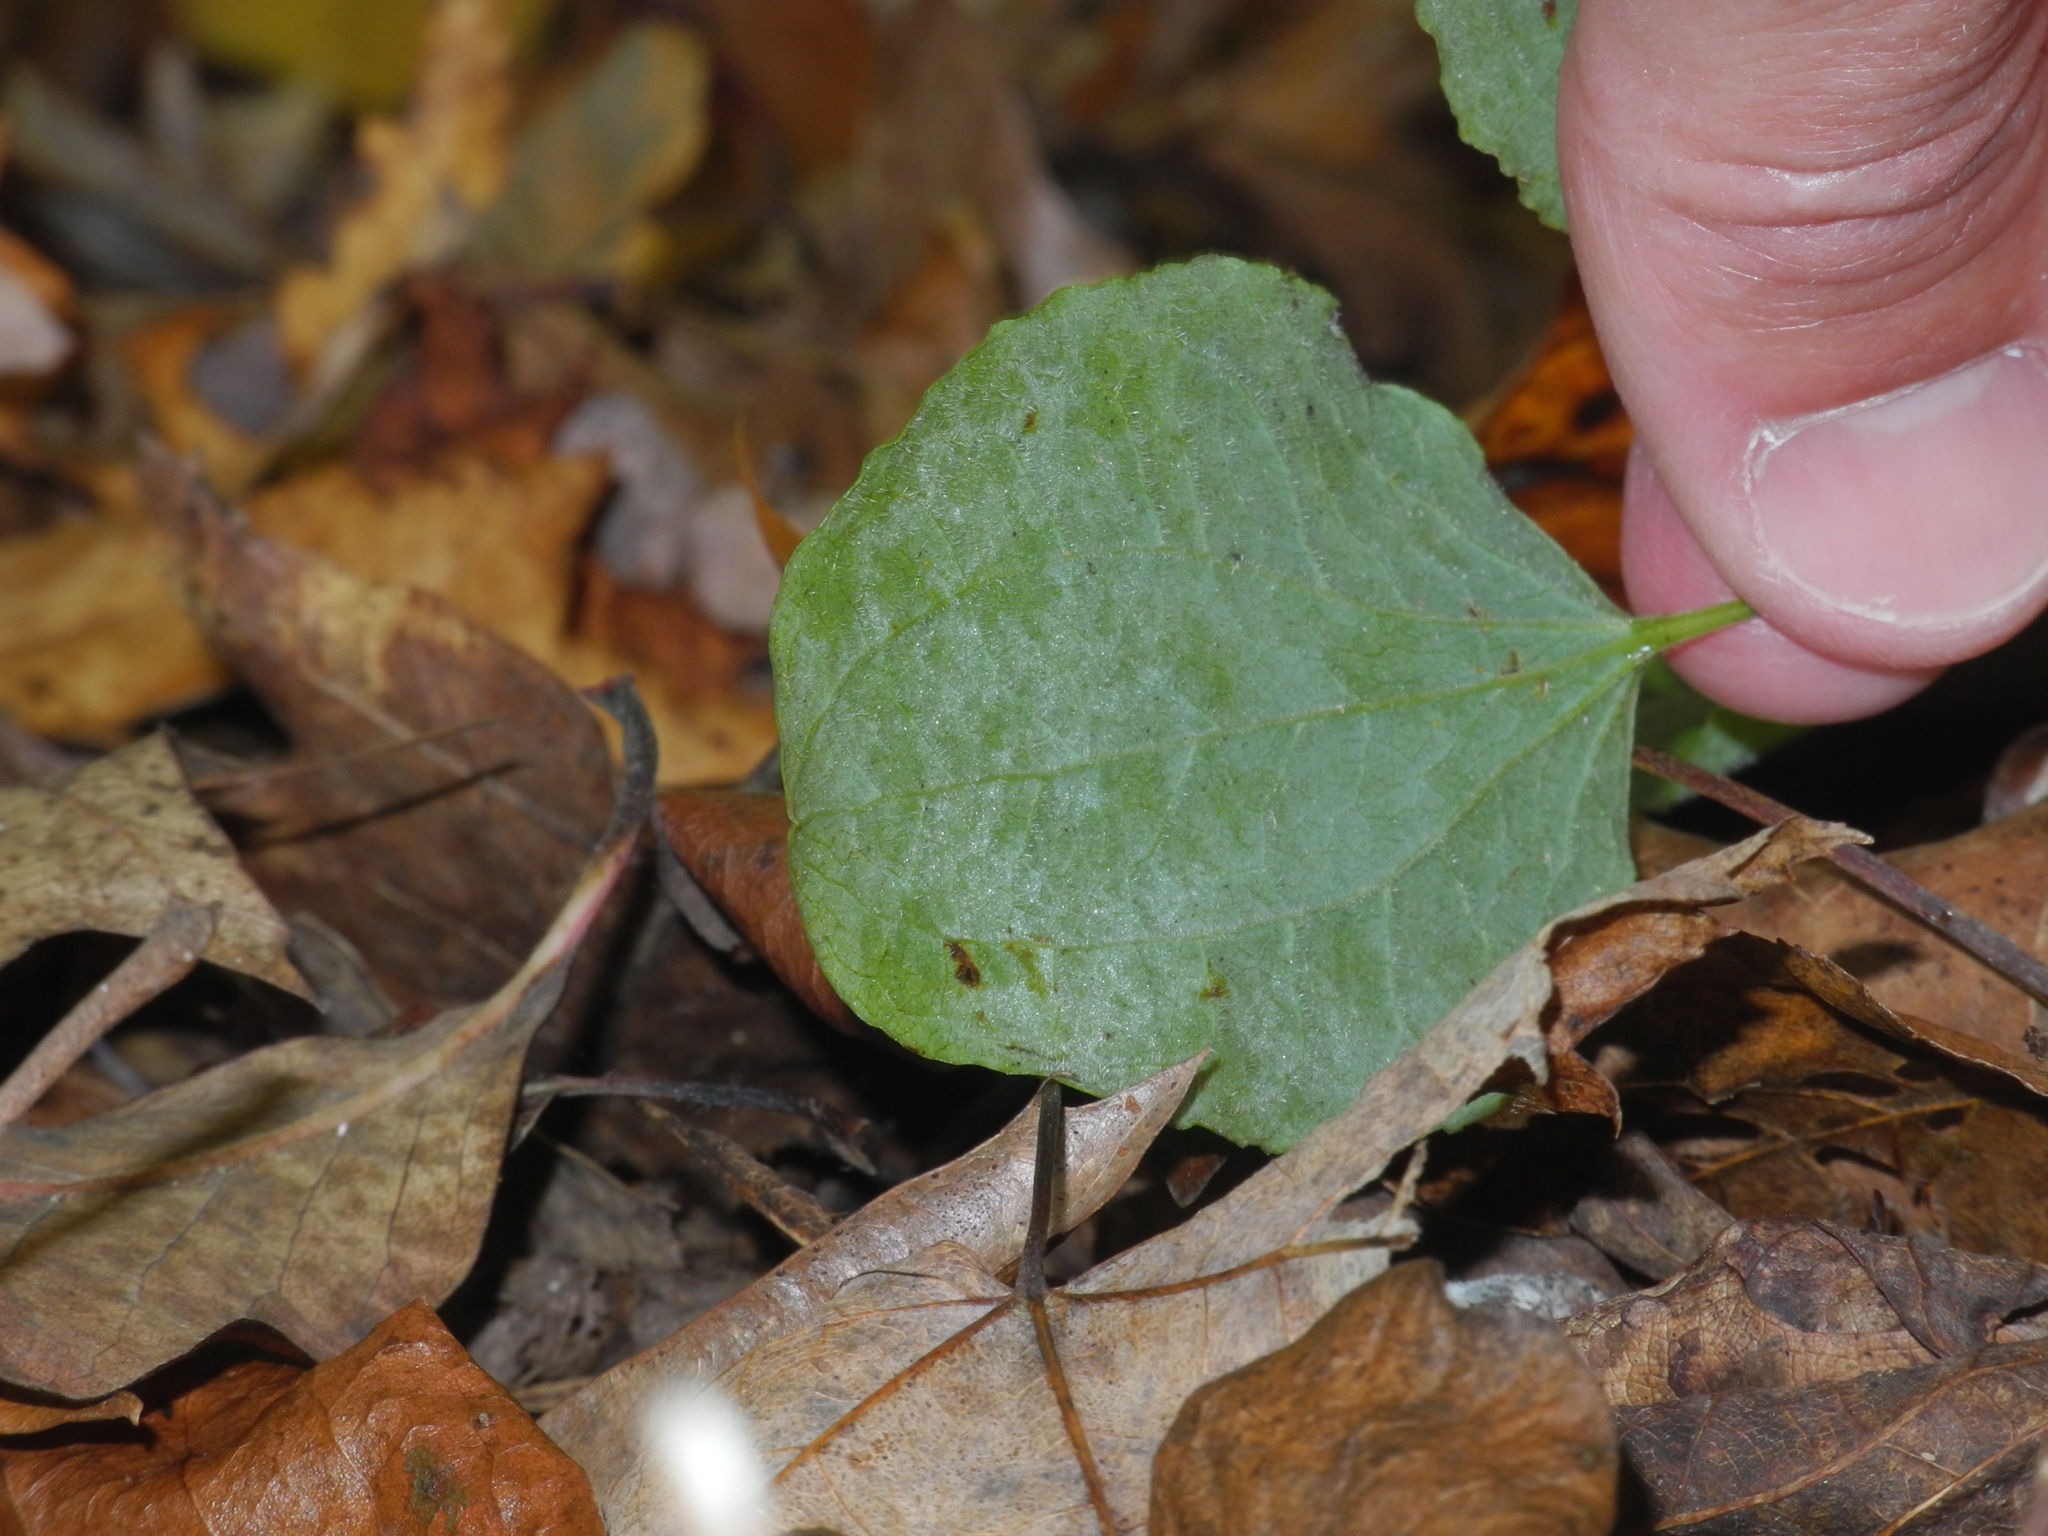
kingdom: Plantae
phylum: Tracheophyta
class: Liliopsida
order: Liliales
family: Smilacaceae
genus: Smilax
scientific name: Smilax hugeri
